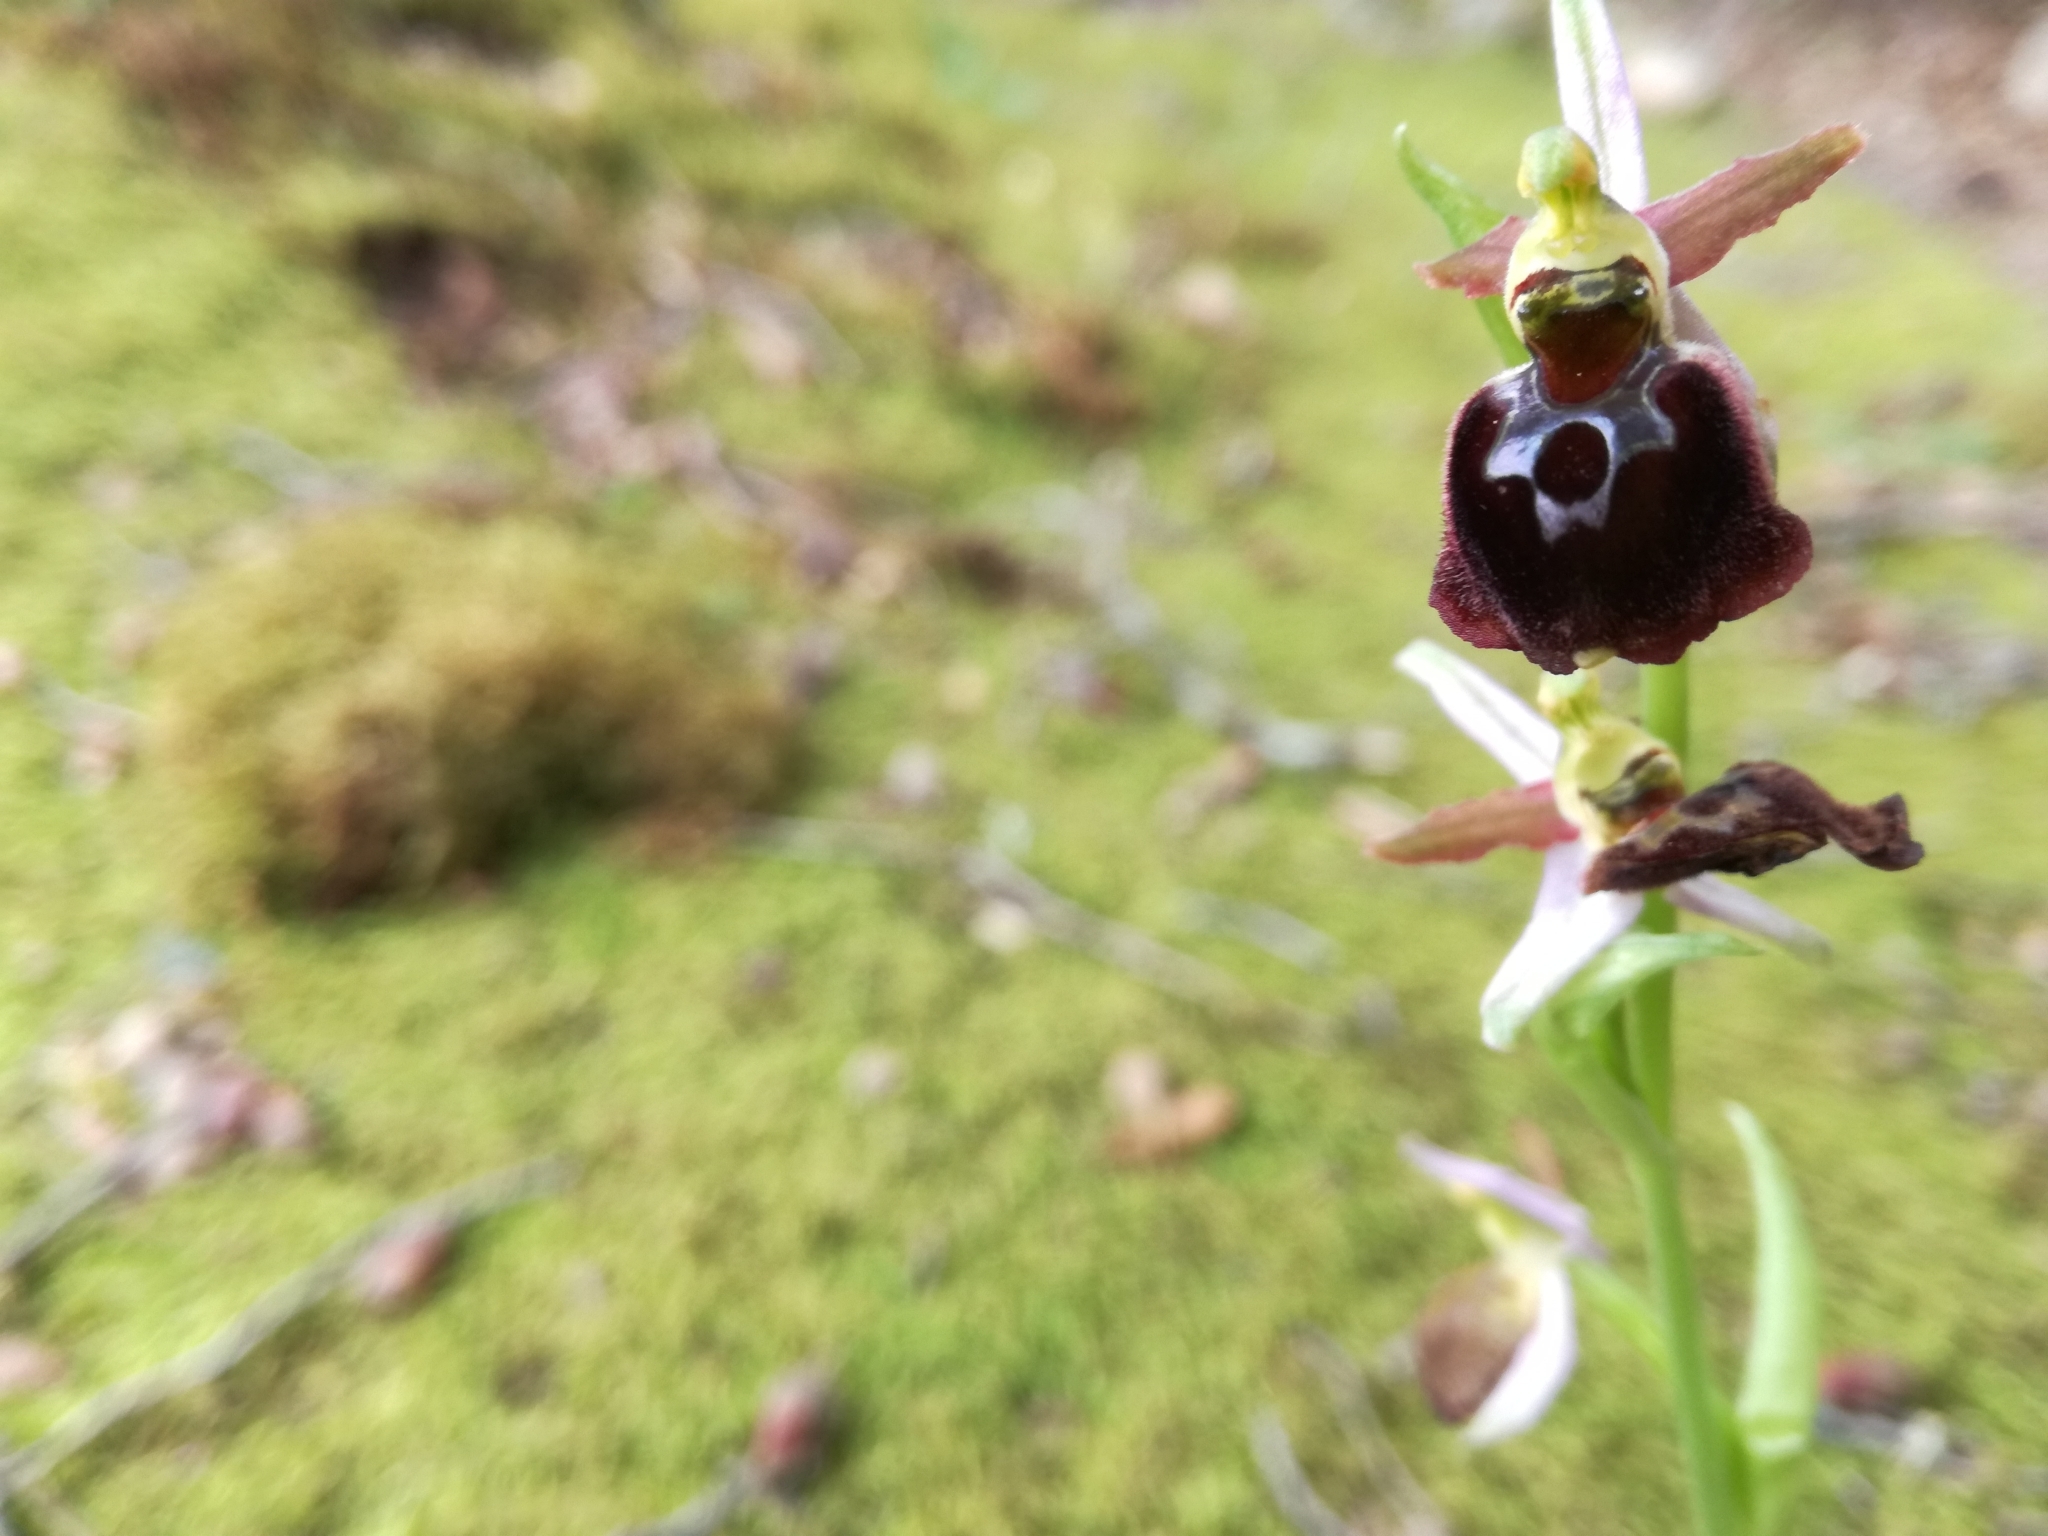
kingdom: Plantae
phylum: Tracheophyta
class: Liliopsida
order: Asparagales
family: Orchidaceae
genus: Ophrys
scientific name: Ophrys arachnitiformis
